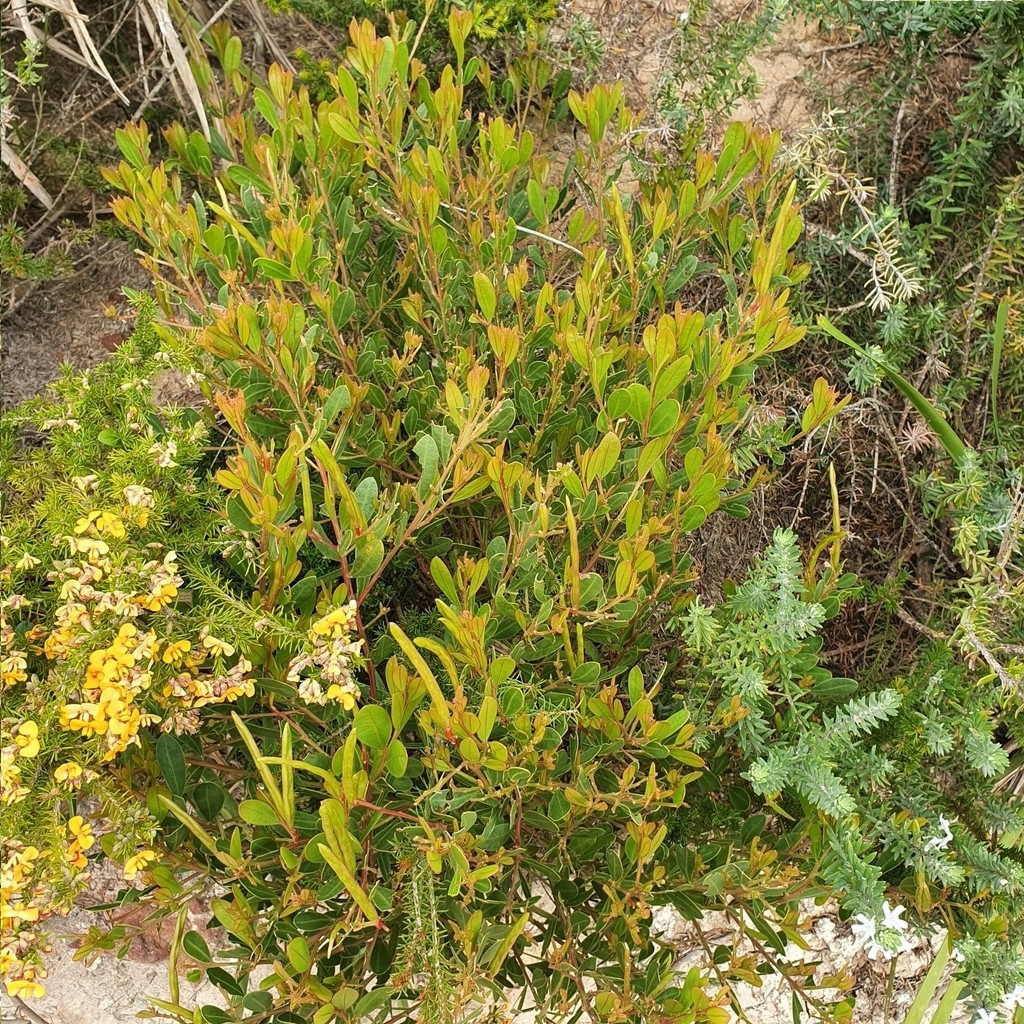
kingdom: Plantae
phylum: Tracheophyta
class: Magnoliopsida
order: Fabales
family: Fabaceae
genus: Acacia
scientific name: Acacia myrtifolia
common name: Myrtle wattle
